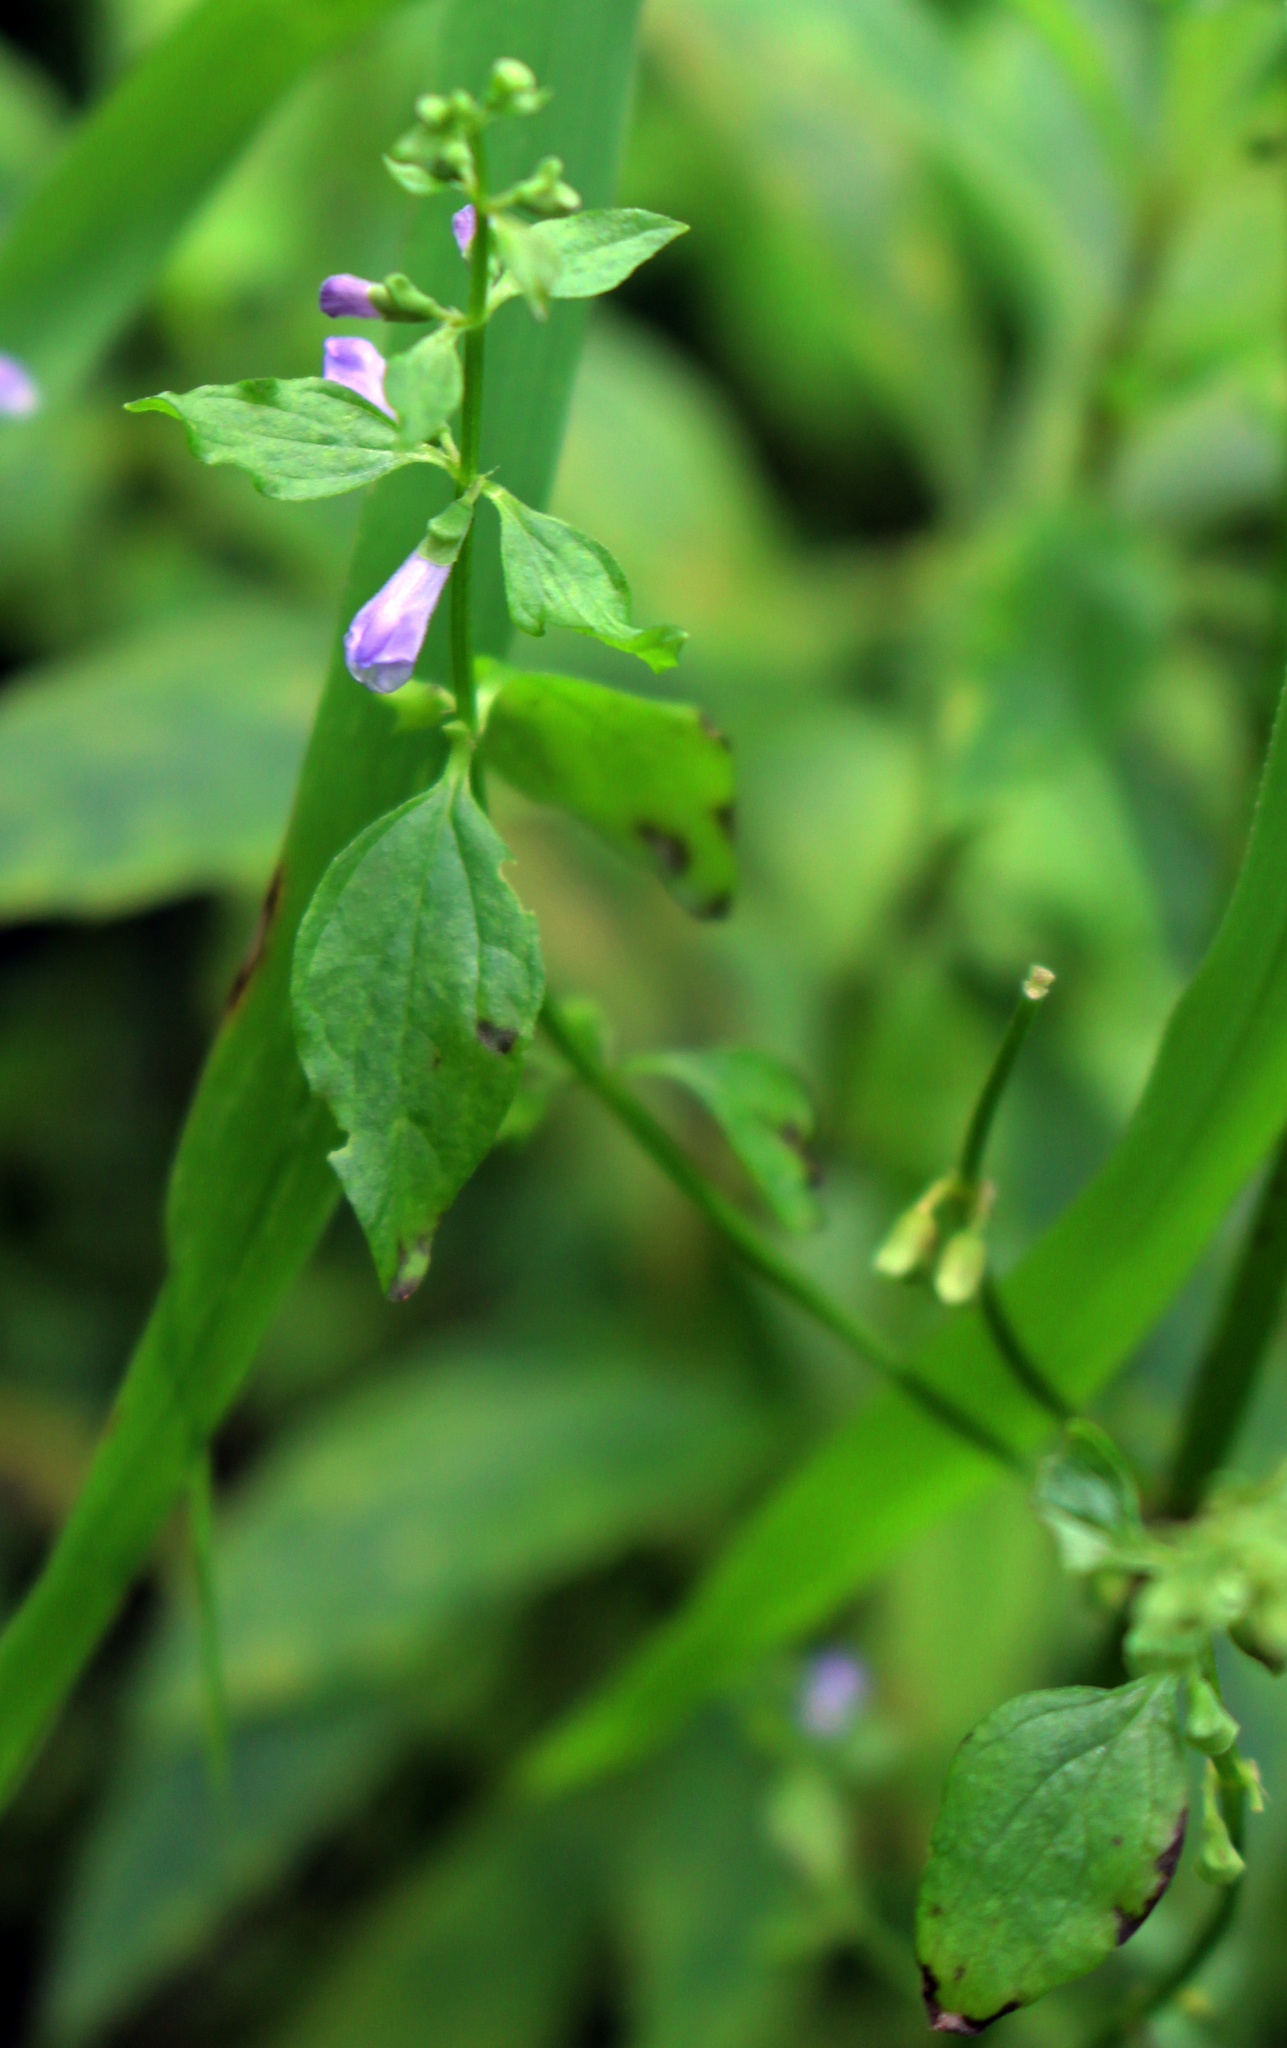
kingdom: Plantae
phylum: Tracheophyta
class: Magnoliopsida
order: Lamiales
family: Lamiaceae
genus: Scutellaria
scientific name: Scutellaria lateriflora
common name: Blue skullcap
